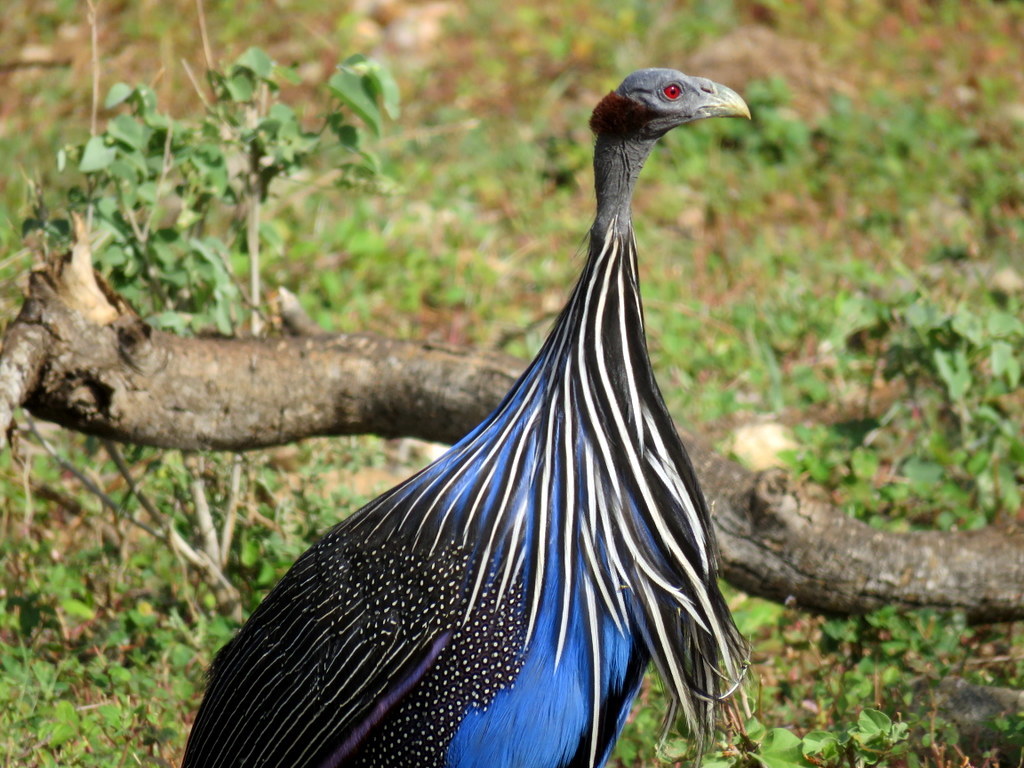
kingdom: Animalia
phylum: Chordata
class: Aves
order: Galliformes
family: Numididae
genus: Acryllium
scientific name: Acryllium vulturinum
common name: Vulturine guineafowl
